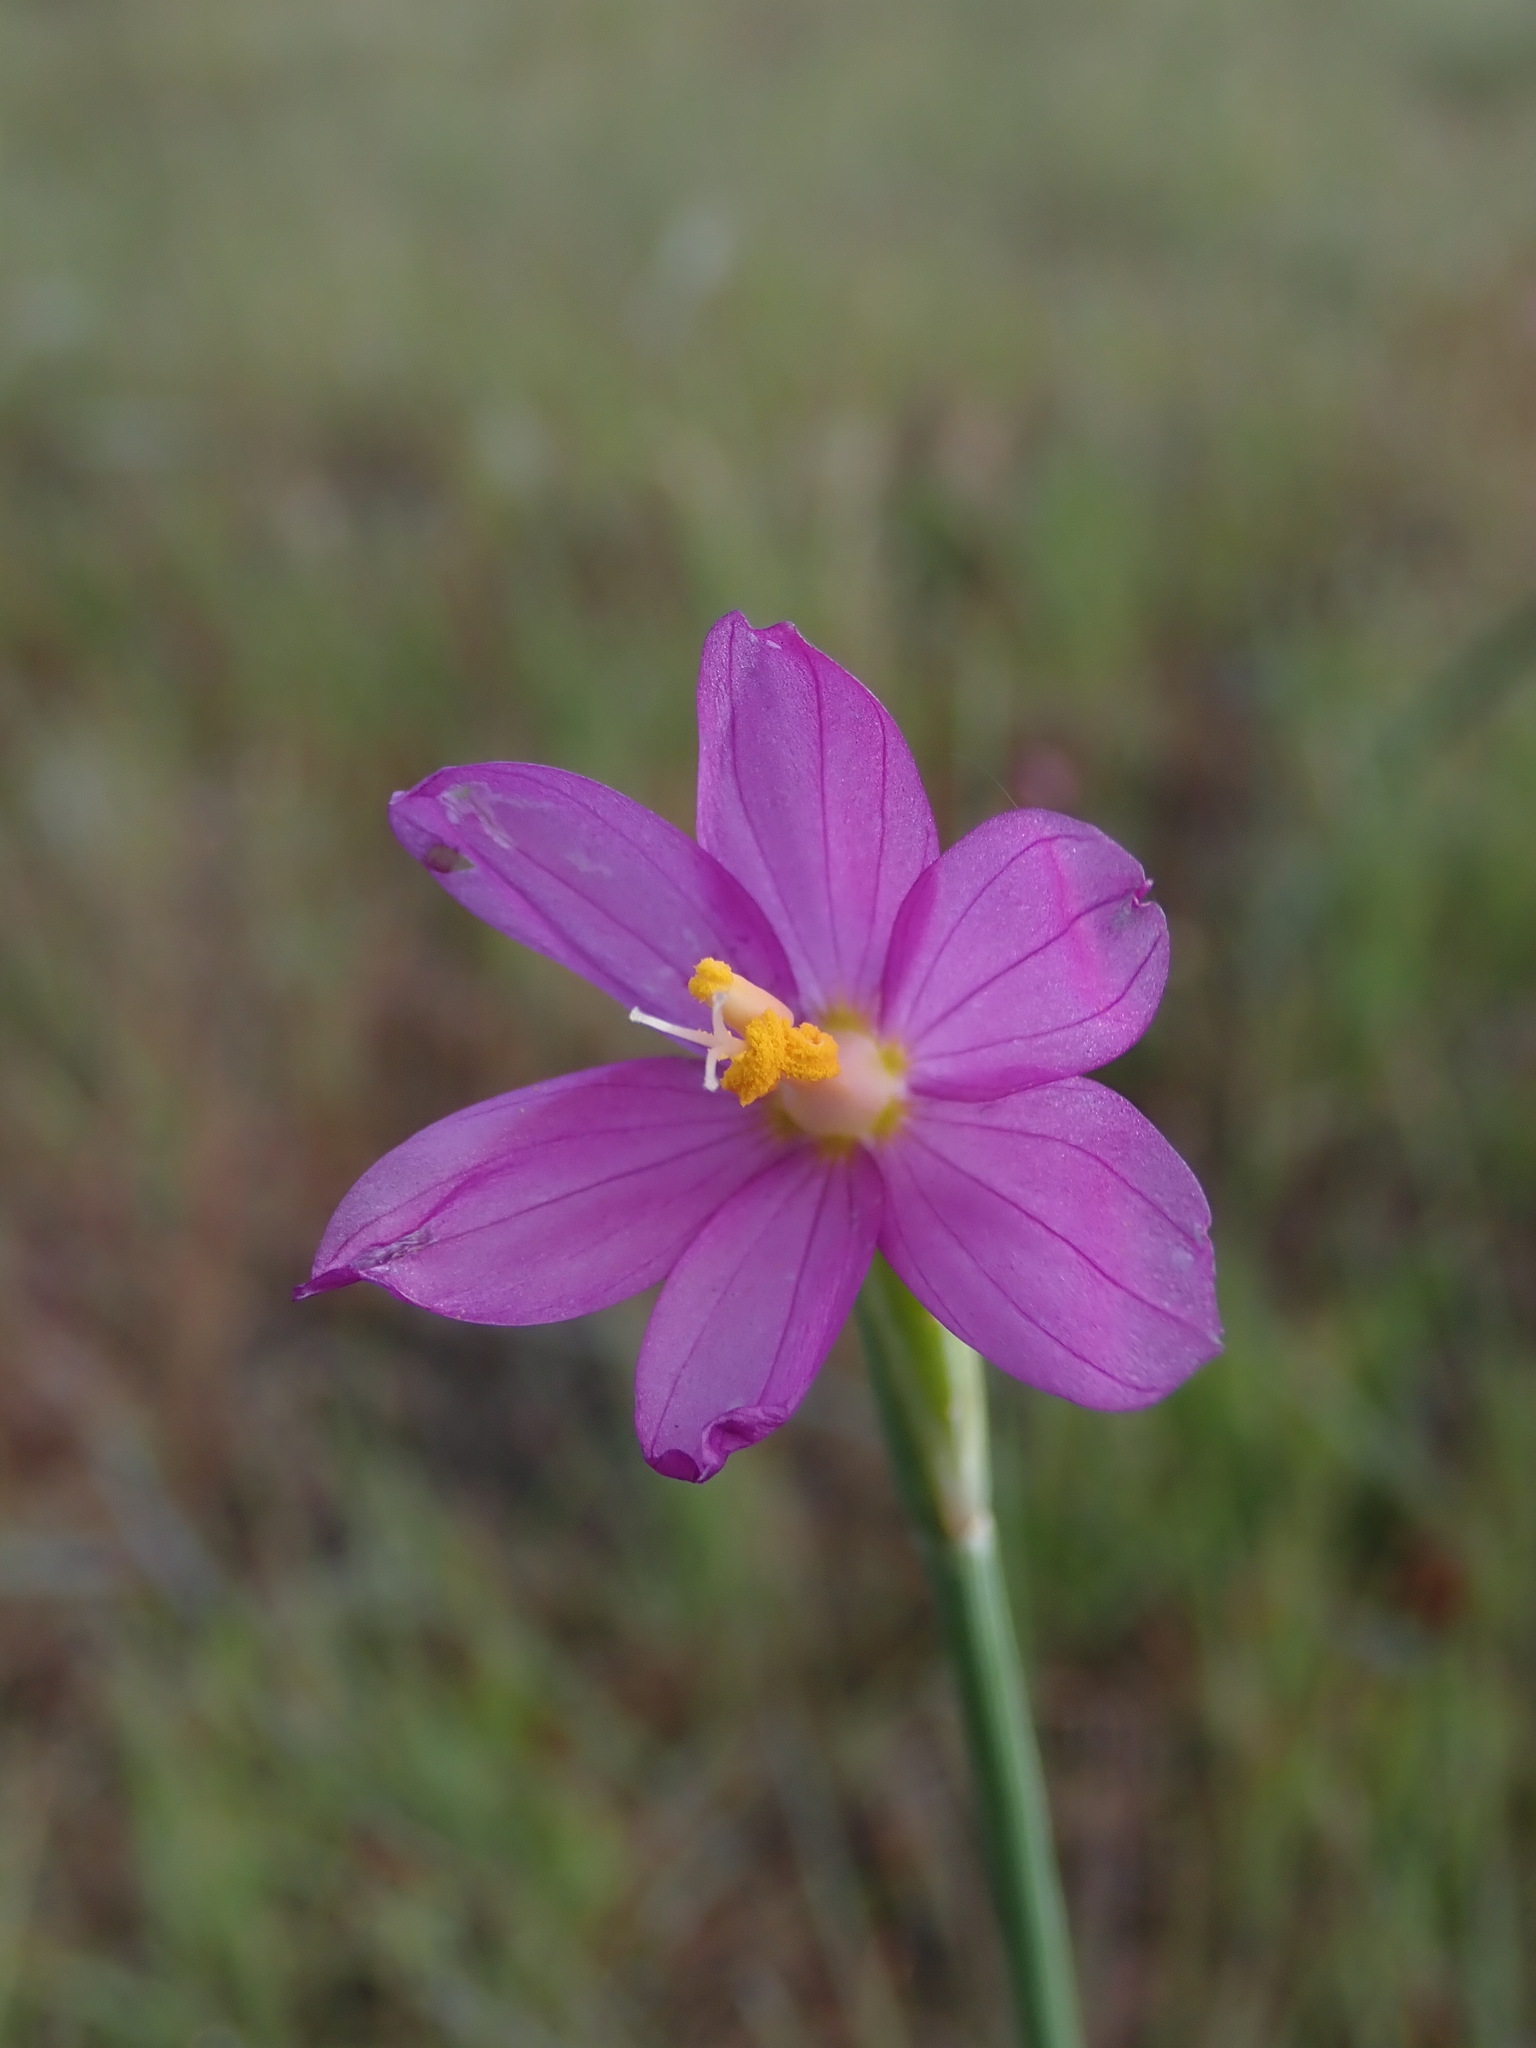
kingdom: Plantae
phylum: Tracheophyta
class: Liliopsida
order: Asparagales
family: Iridaceae
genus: Olsynium
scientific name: Olsynium douglasii
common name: Douglas' grasswidow
